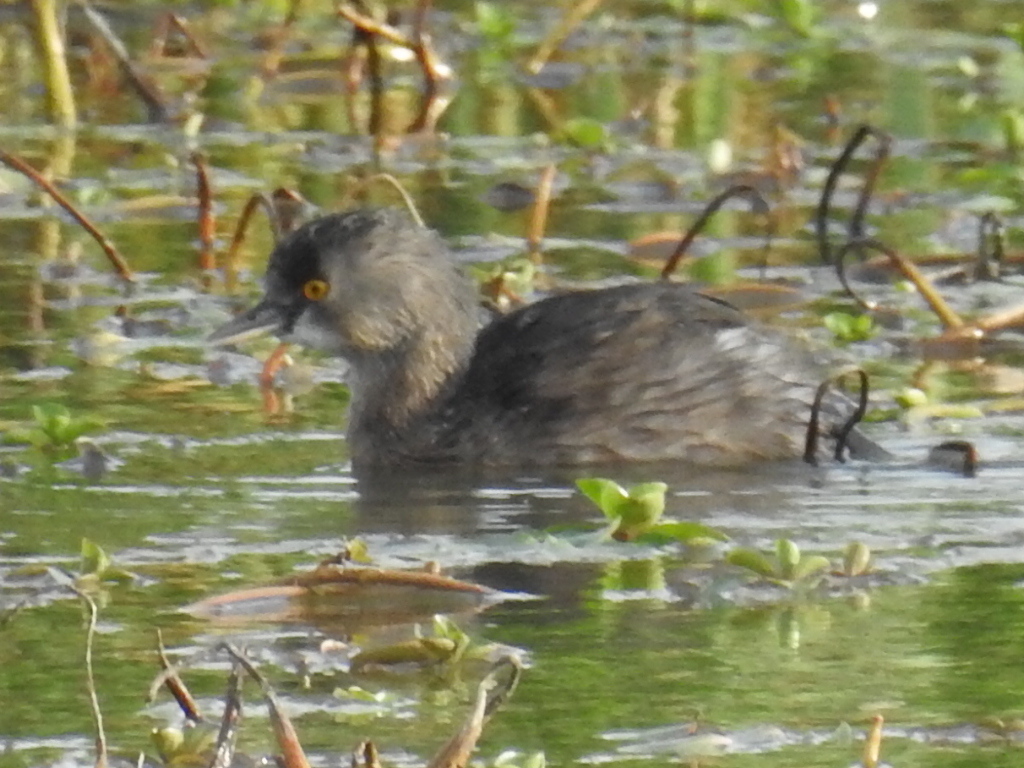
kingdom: Animalia
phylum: Chordata
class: Aves
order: Podicipediformes
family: Podicipedidae
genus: Tachybaptus
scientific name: Tachybaptus dominicus
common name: Least grebe
